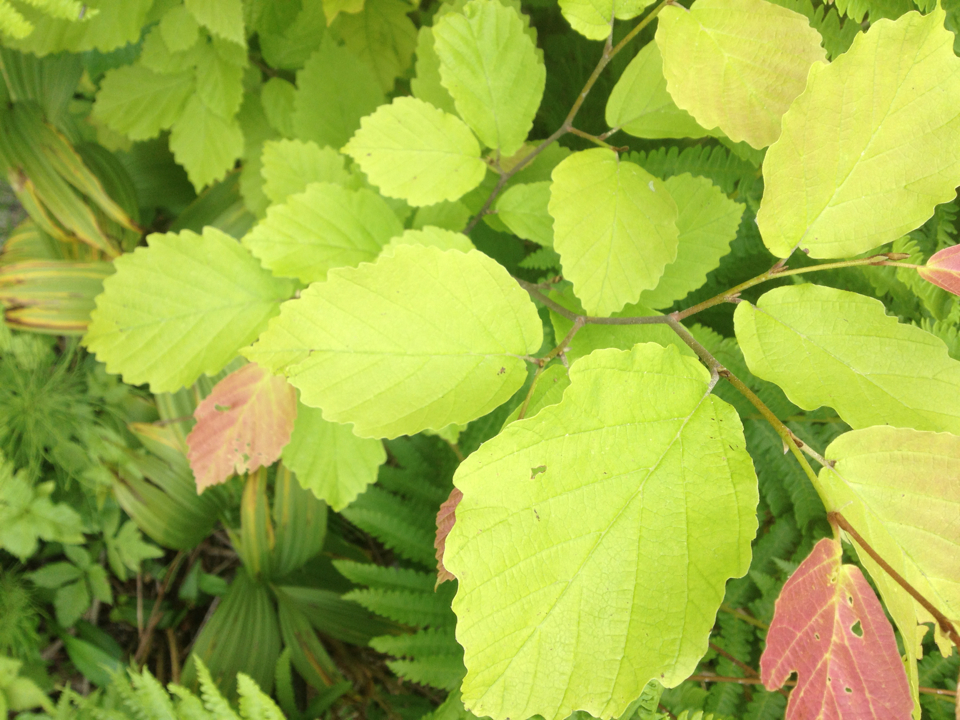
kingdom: Plantae
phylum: Tracheophyta
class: Magnoliopsida
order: Saxifragales
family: Hamamelidaceae
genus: Hamamelis
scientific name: Hamamelis virginiana
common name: Witch-hazel
